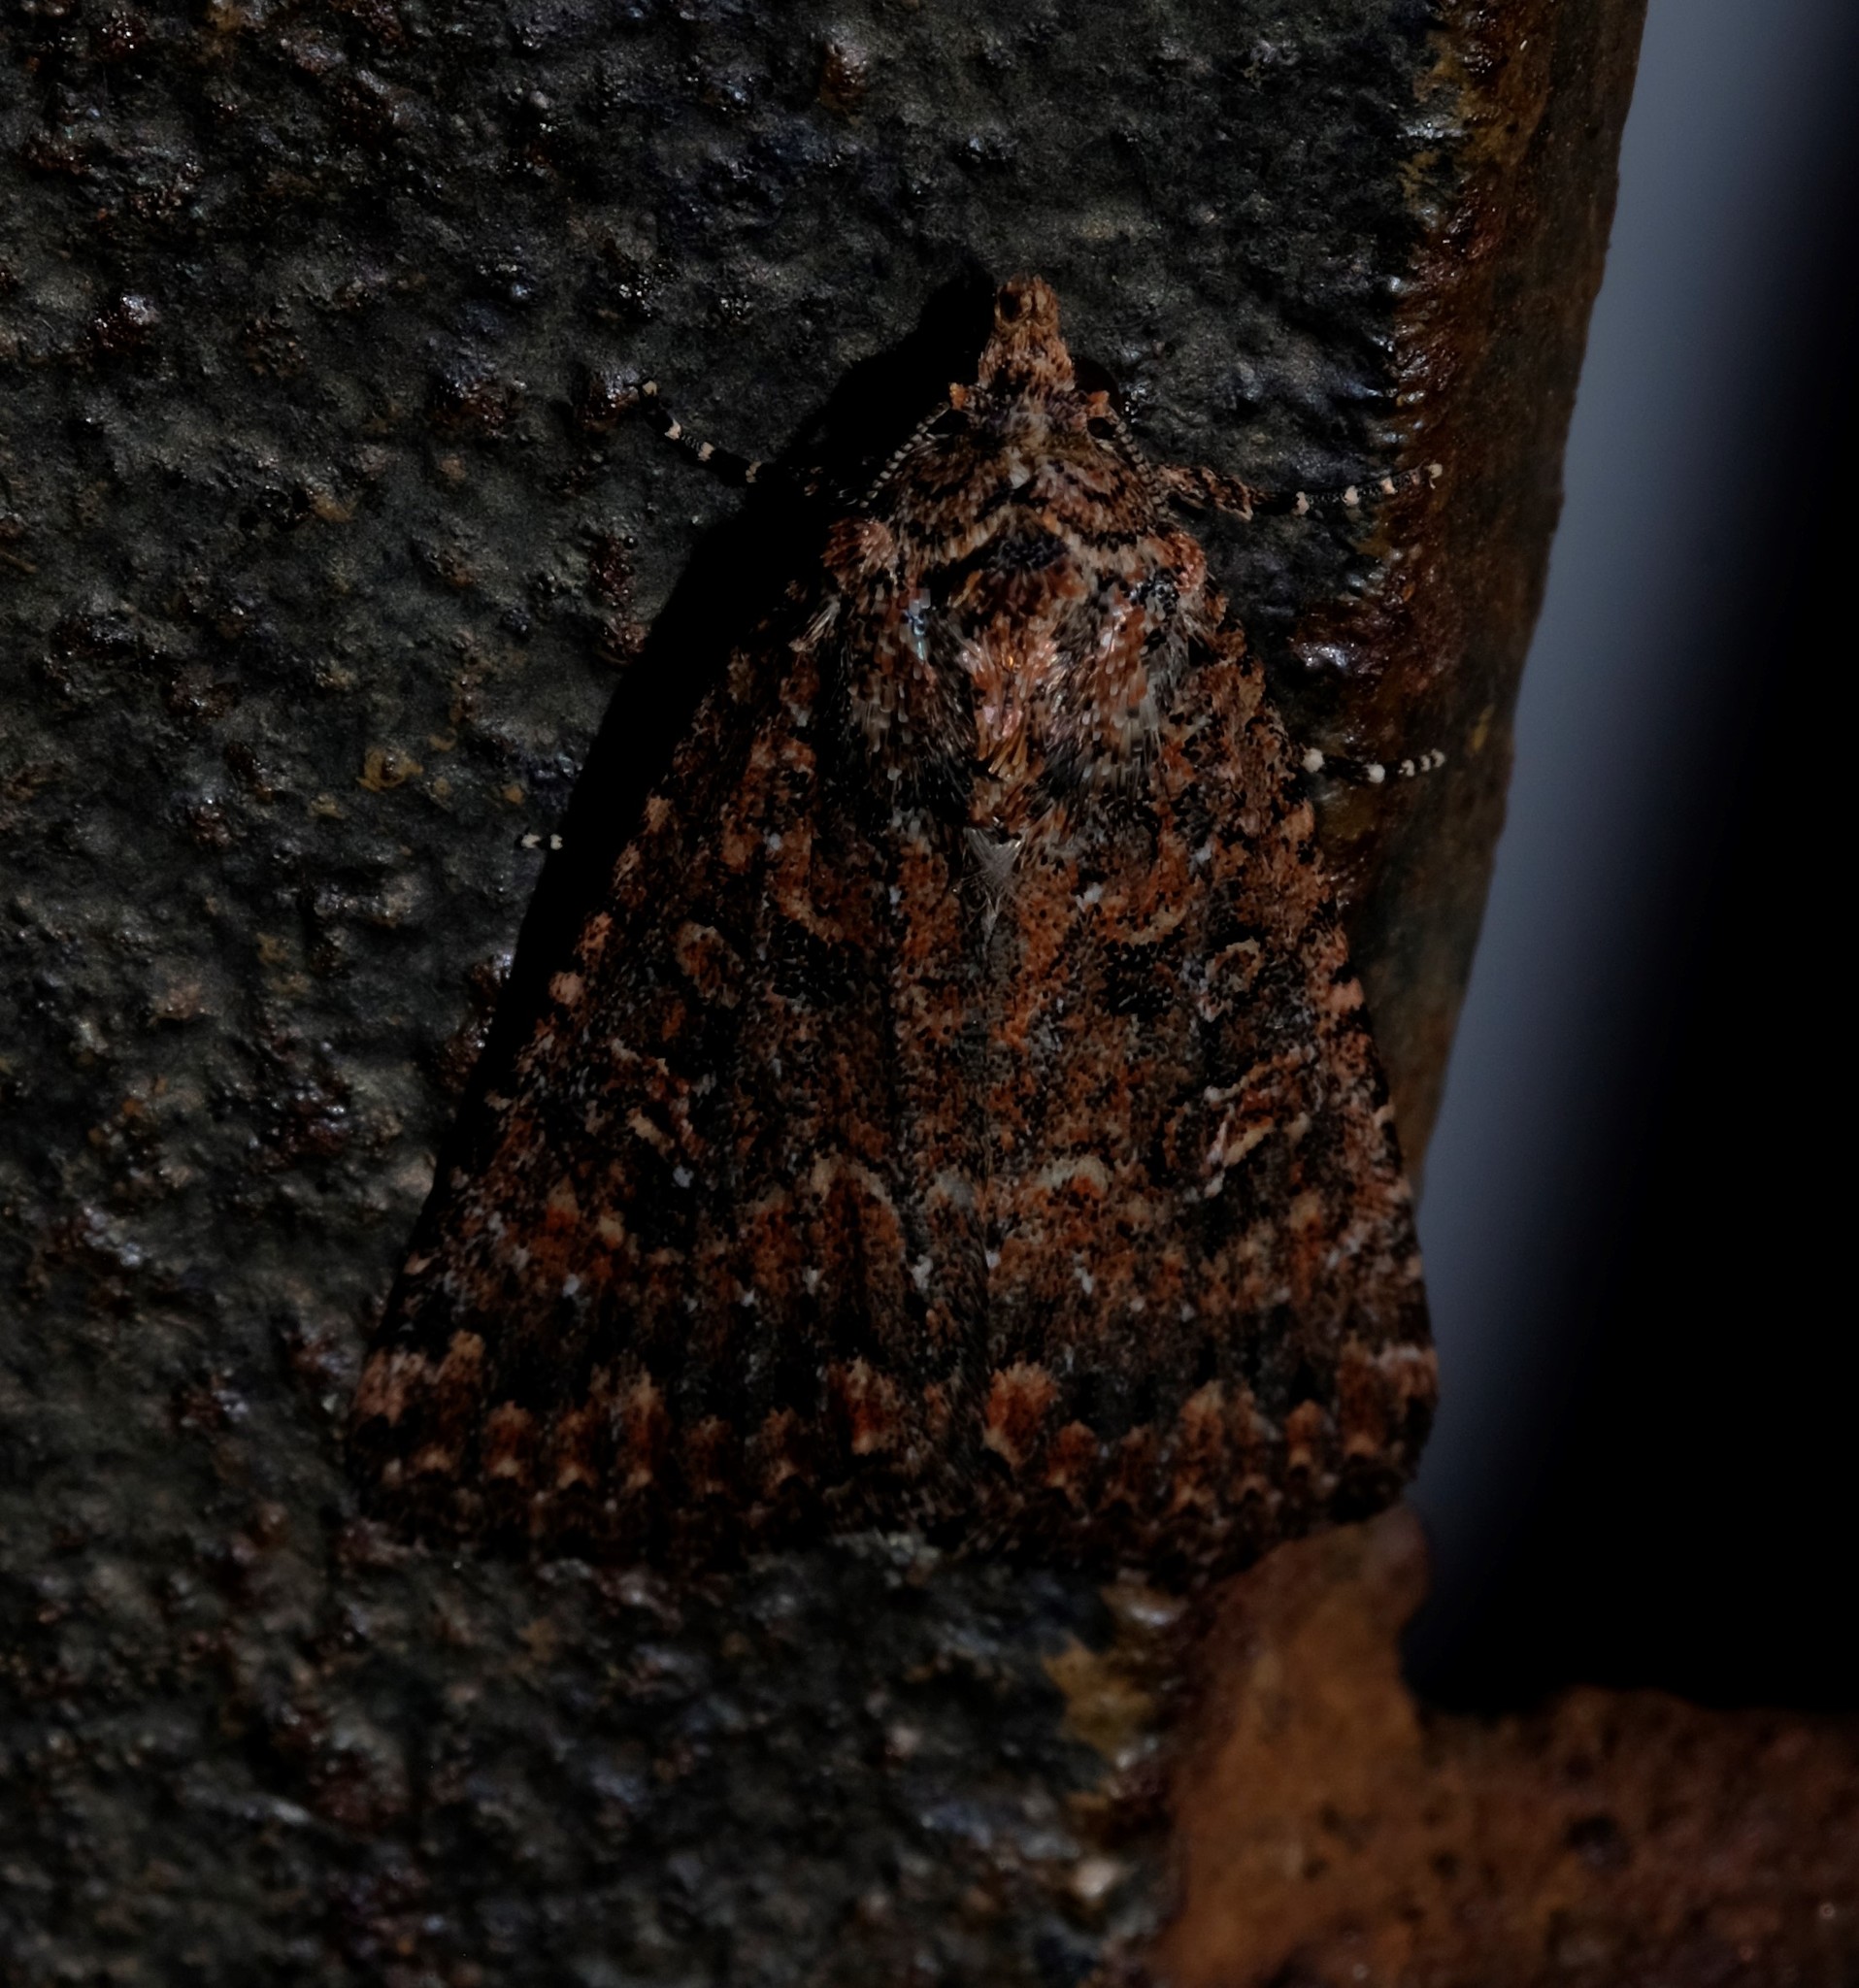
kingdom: Animalia
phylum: Arthropoda
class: Insecta
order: Lepidoptera
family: Noctuidae
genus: Hypoperigea
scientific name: Hypoperigea tonsa
